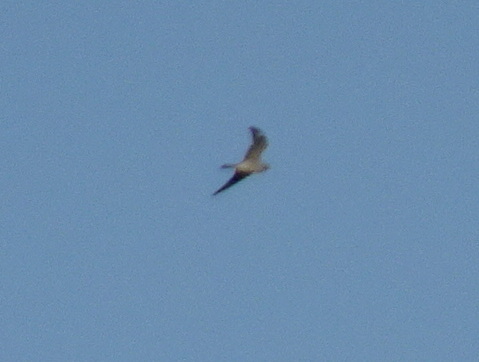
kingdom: Animalia
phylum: Chordata
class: Aves
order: Caprimulgiformes
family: Caprimulgidae
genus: Chordeiles
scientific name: Chordeiles minor
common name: Common nighthawk
